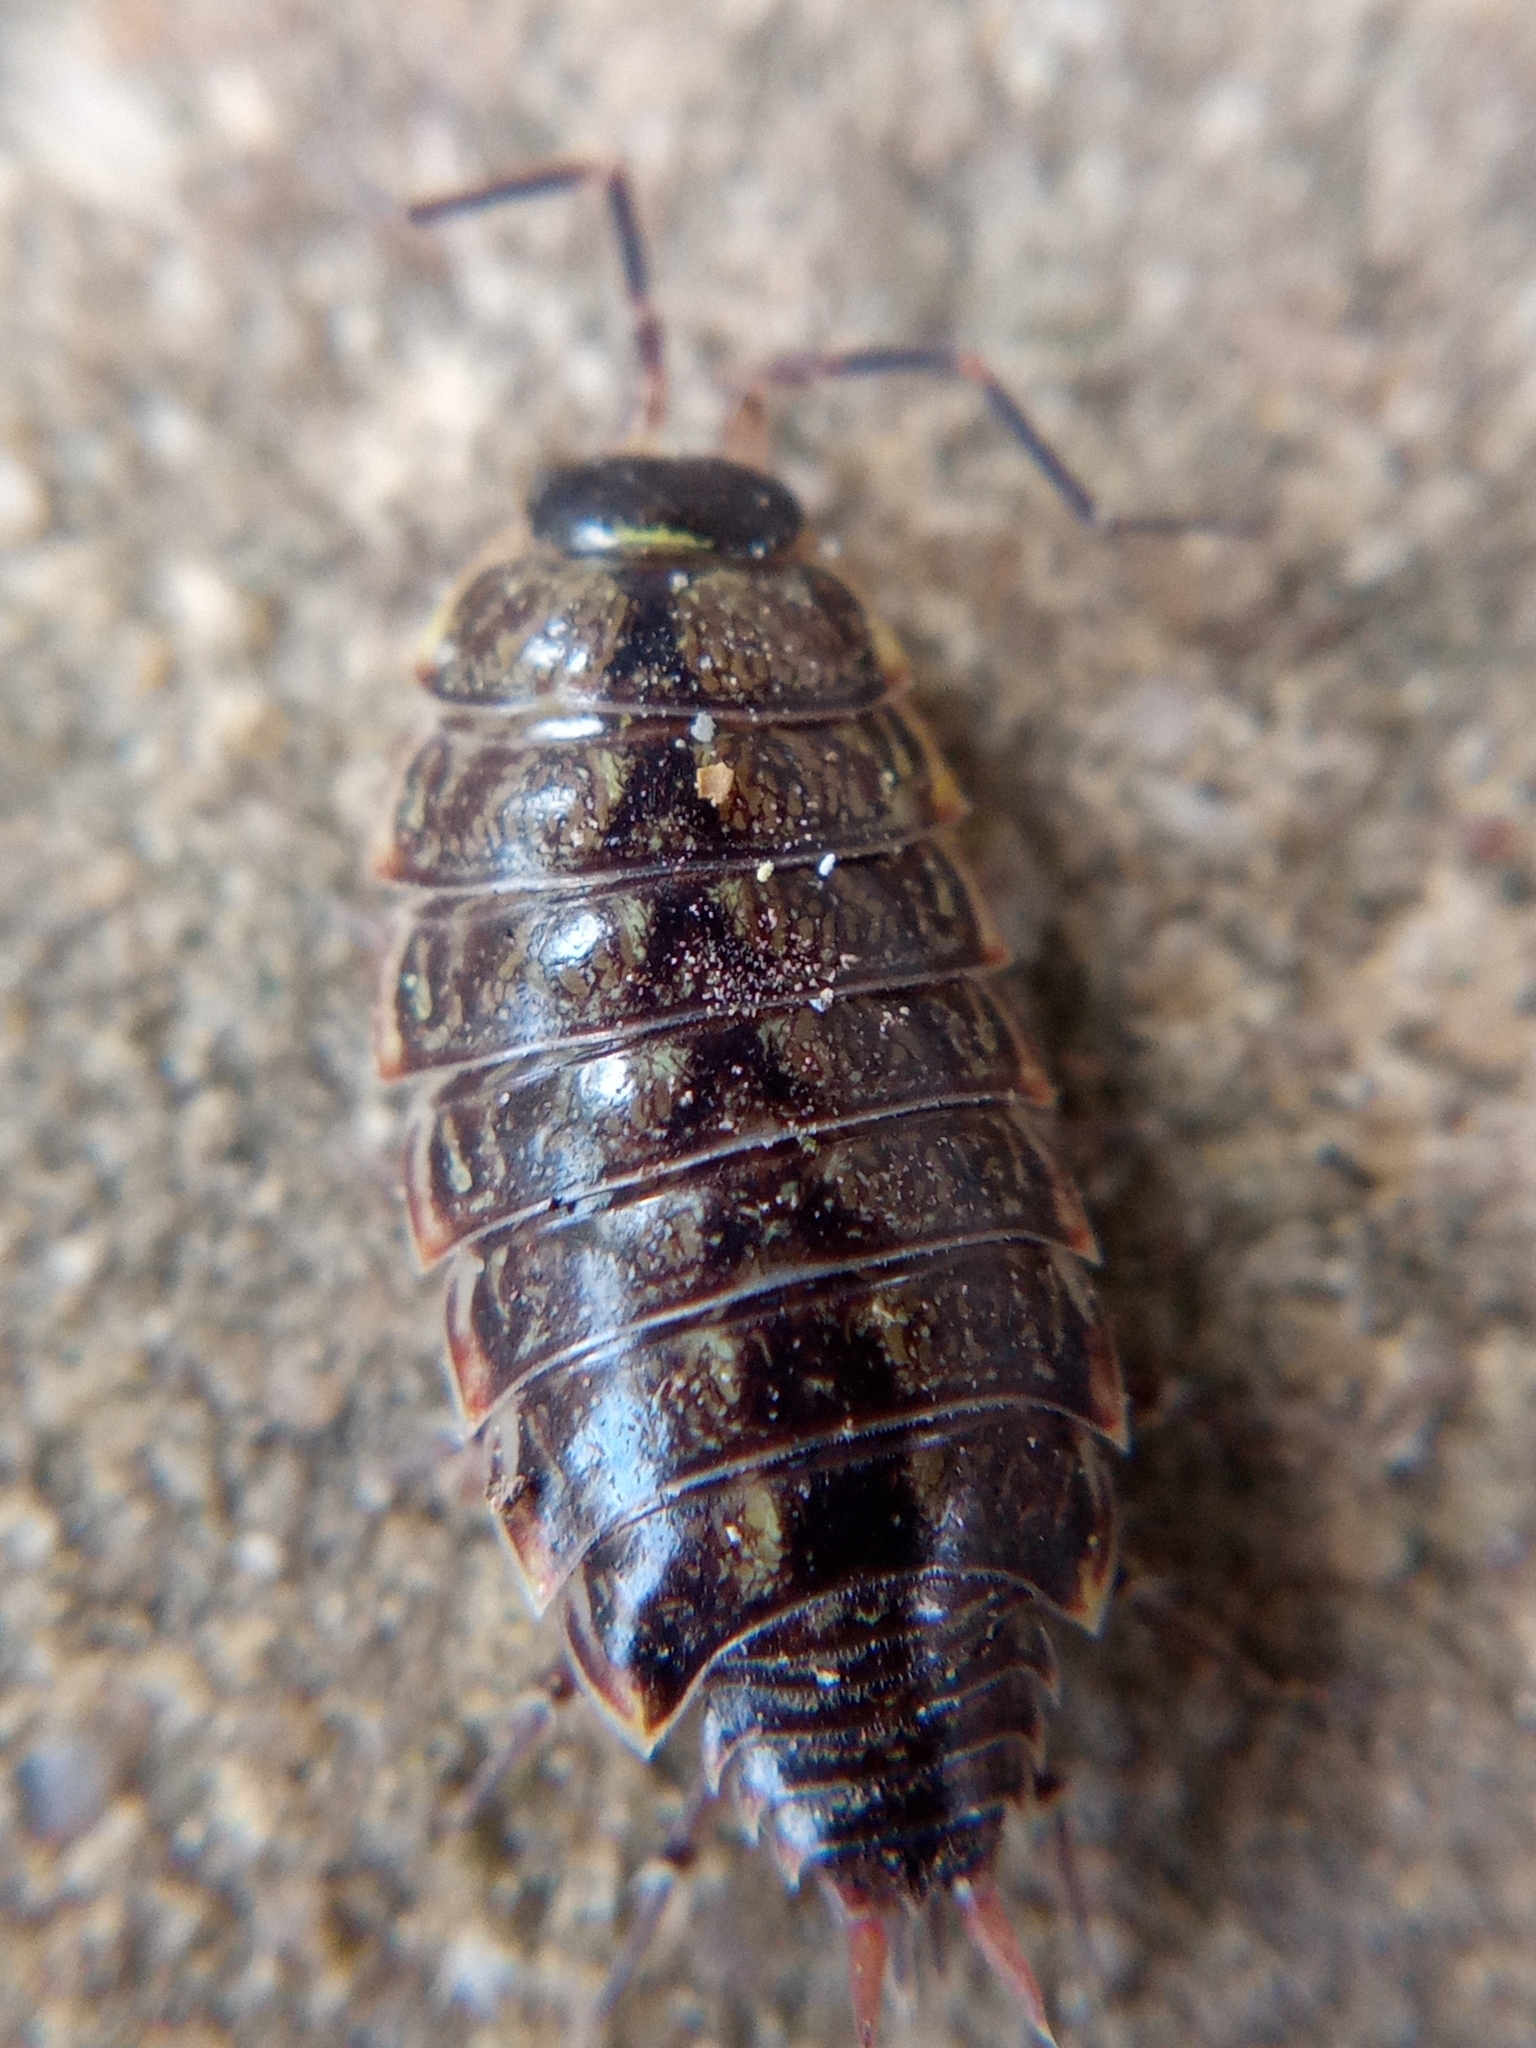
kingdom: Animalia
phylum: Arthropoda
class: Malacostraca
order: Isopoda
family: Philosciidae
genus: Philoscia
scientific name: Philoscia muscorum
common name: Common striped woodlouse
